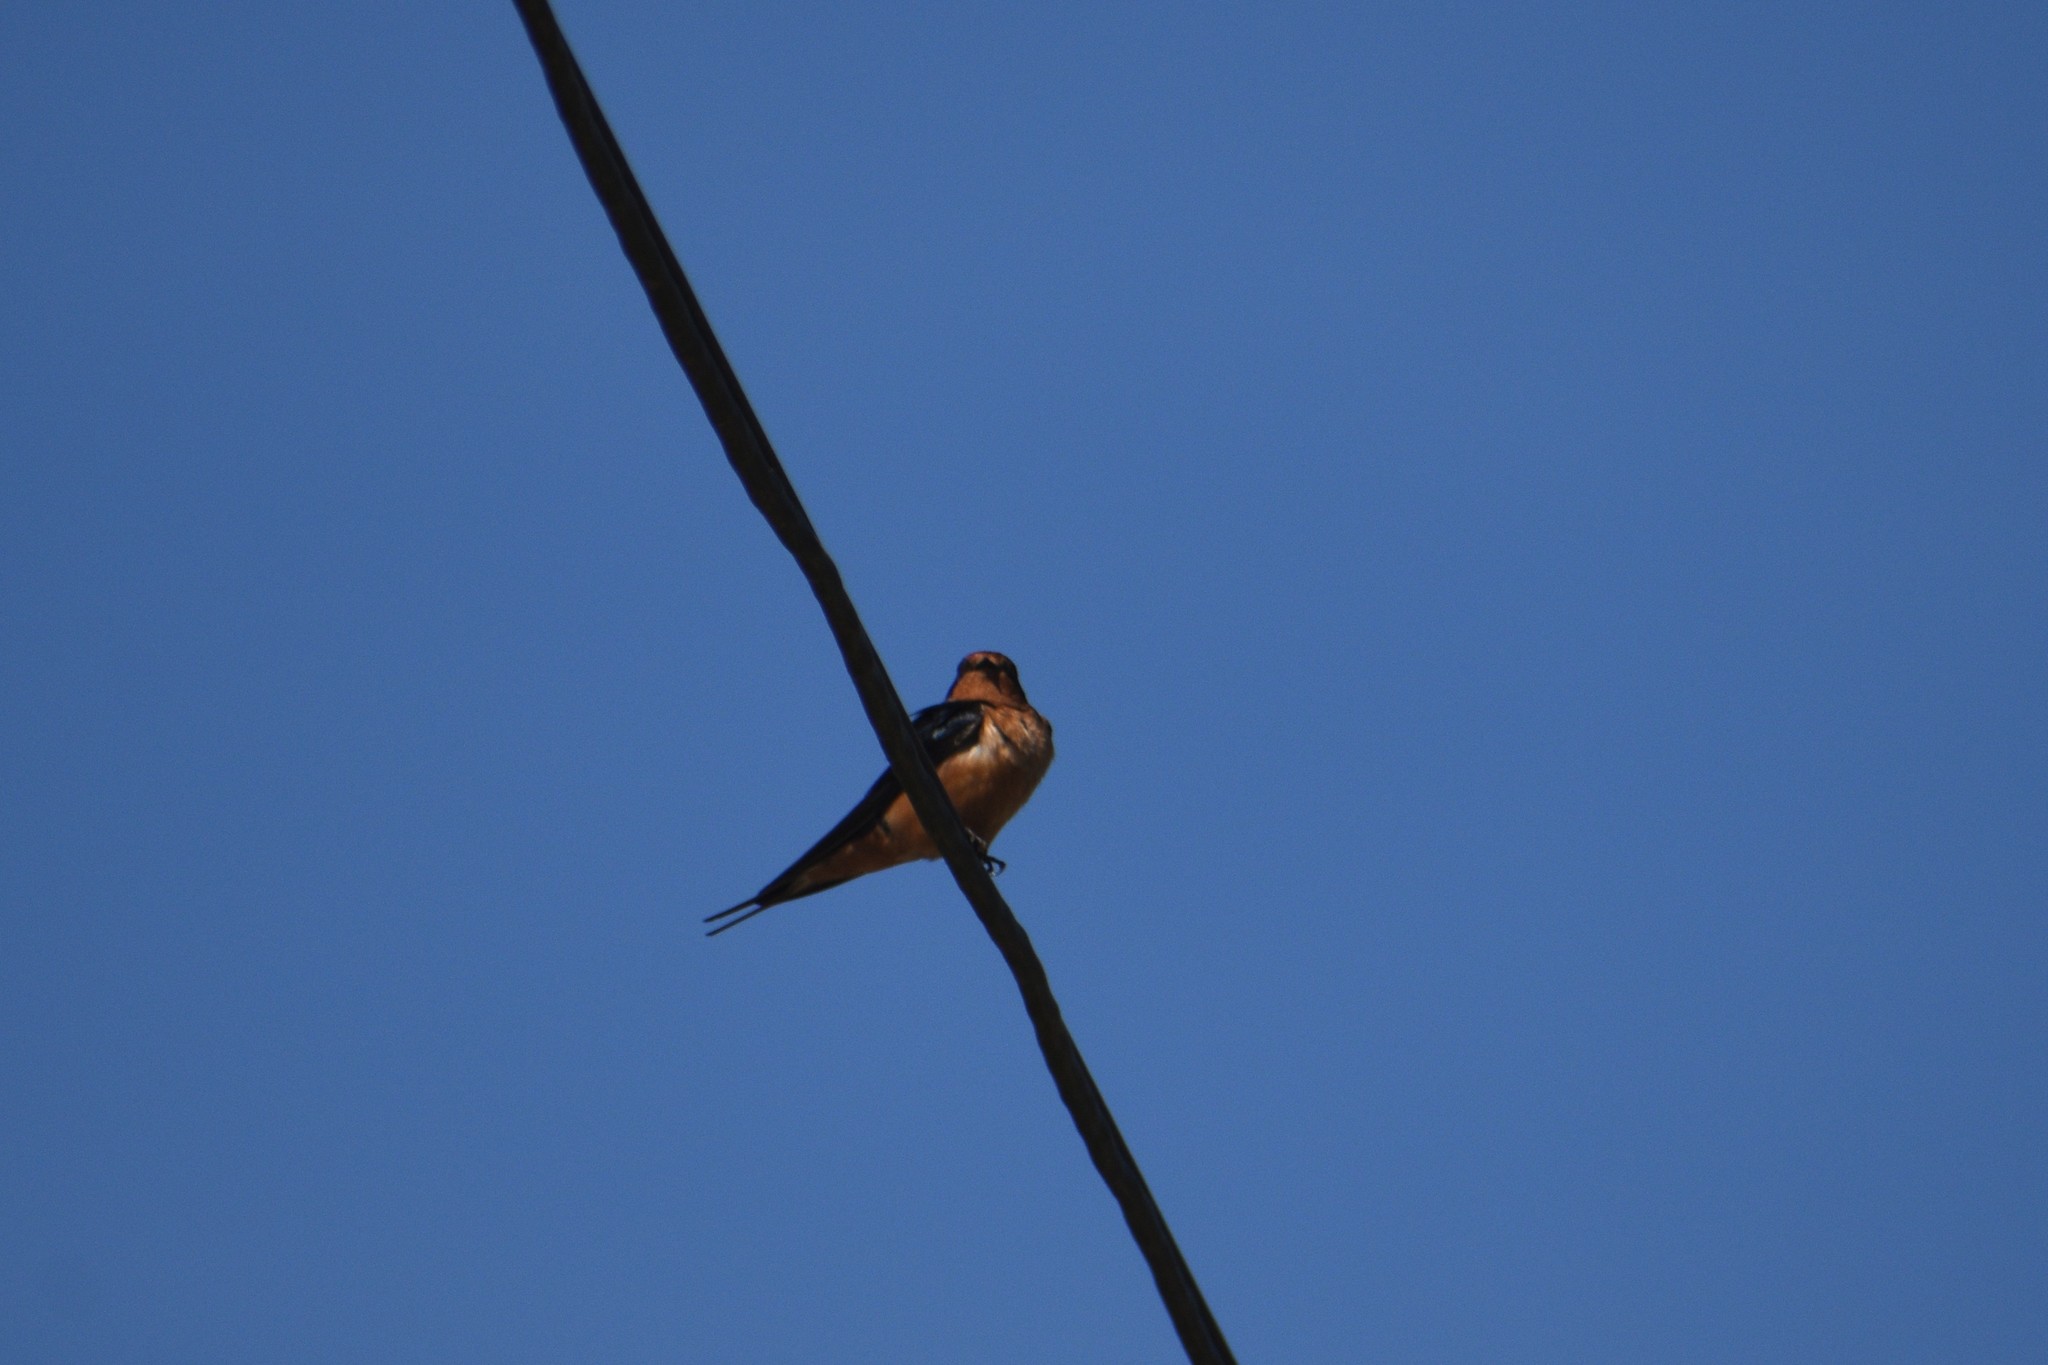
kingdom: Animalia
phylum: Chordata
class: Aves
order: Passeriformes
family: Hirundinidae
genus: Hirundo
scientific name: Hirundo rustica
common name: Barn swallow
